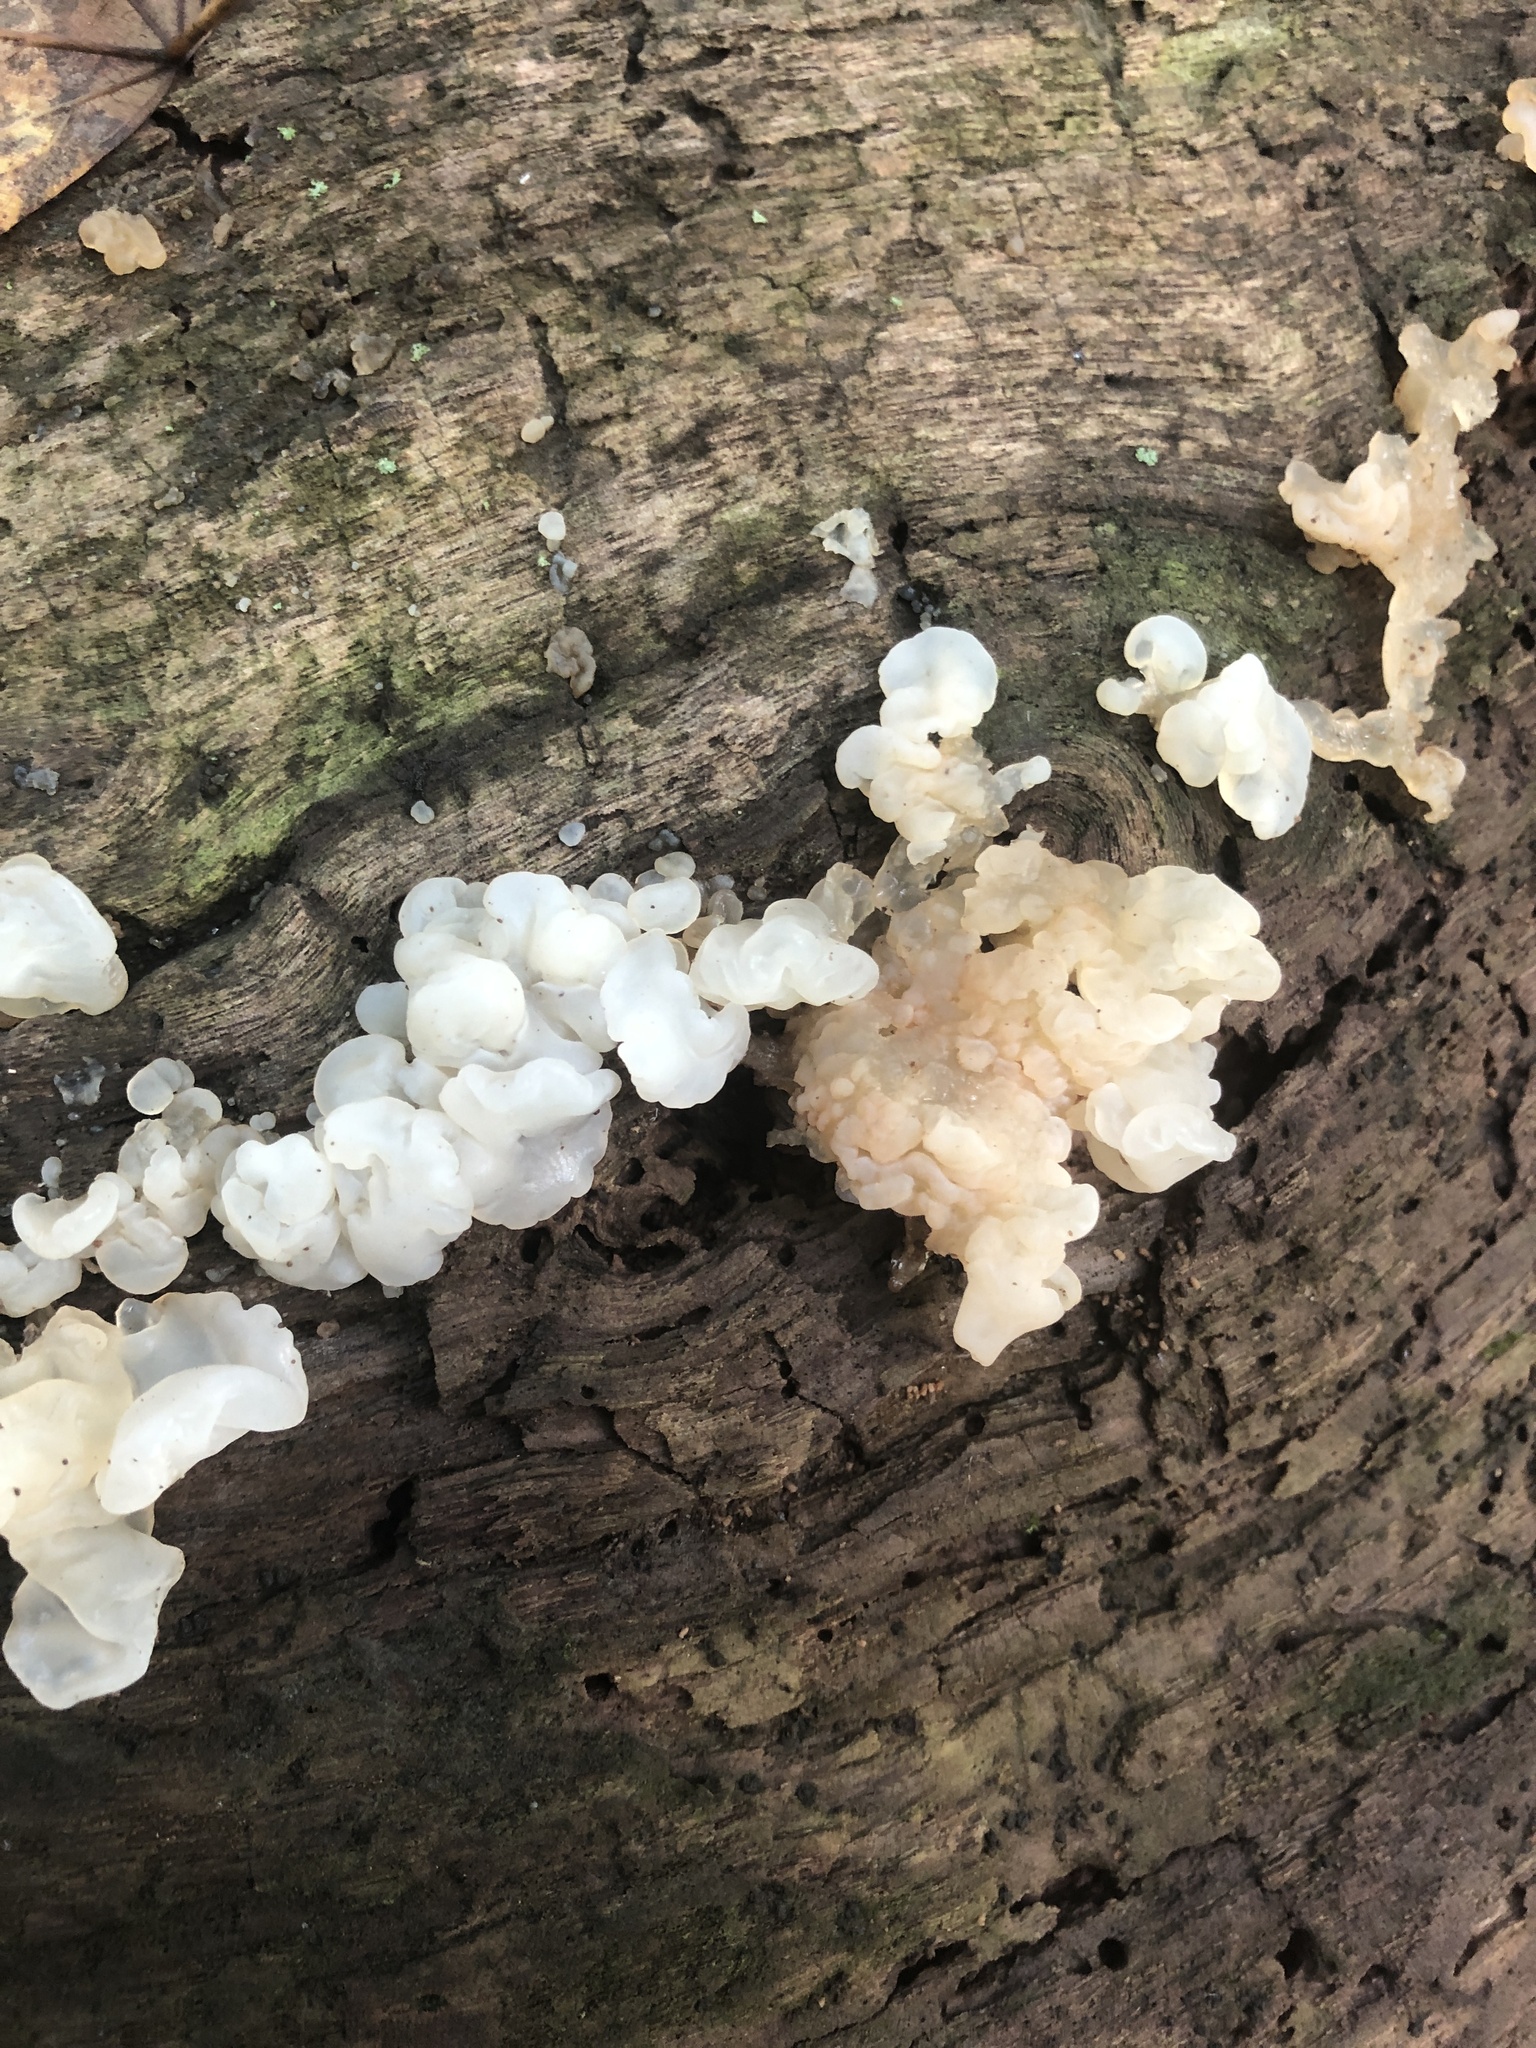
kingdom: Fungi
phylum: Basidiomycota
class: Agaricomycetes
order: Auriculariales
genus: Ductifera
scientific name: Ductifera pululahuana
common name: White jelly fungus
